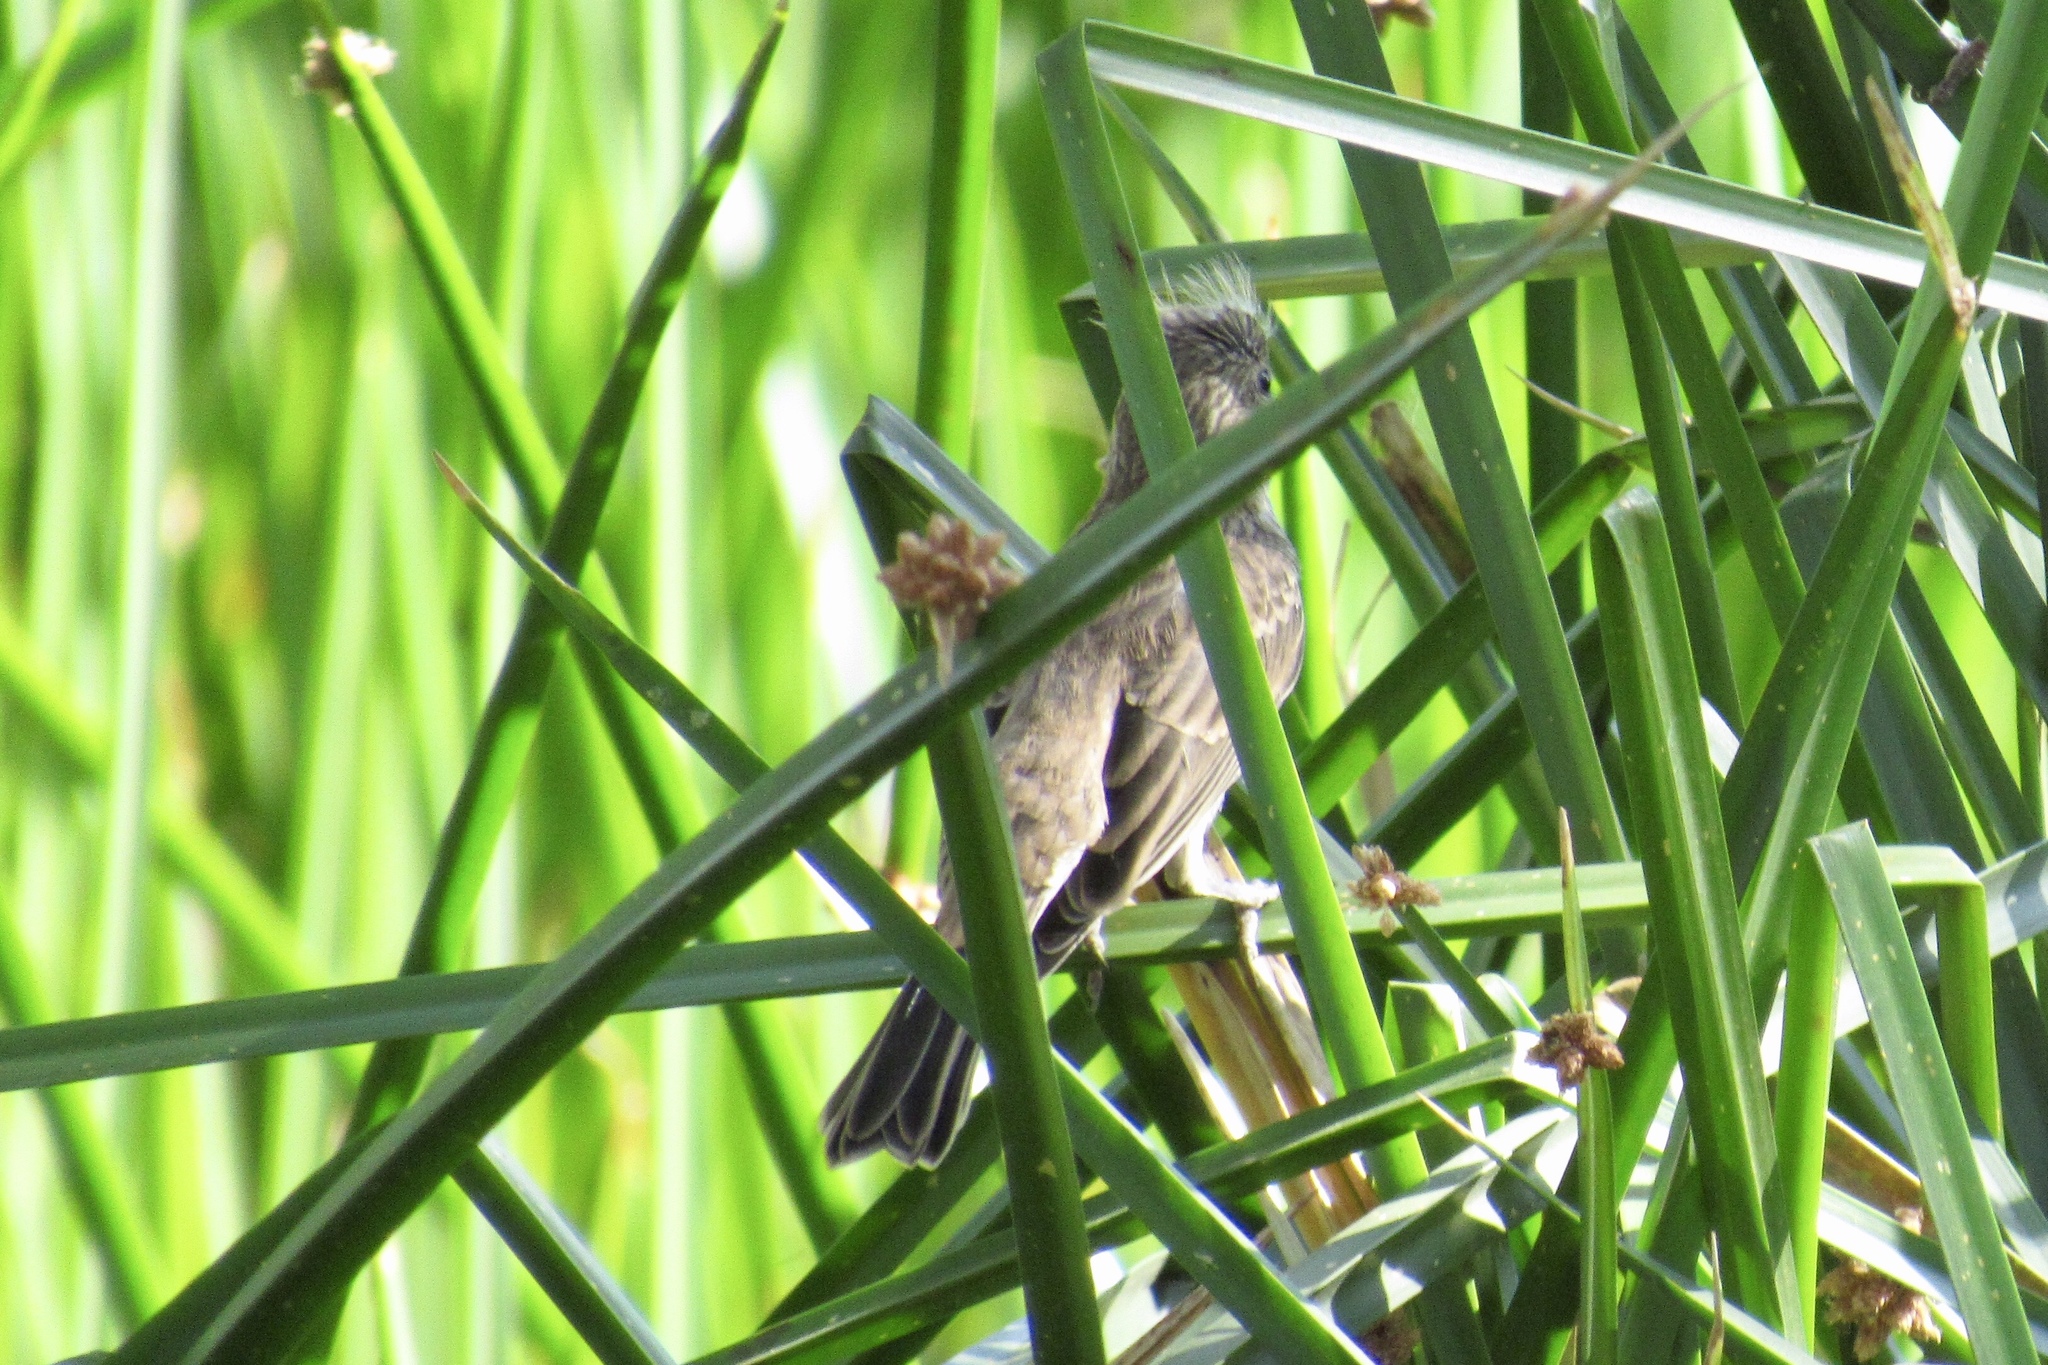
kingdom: Animalia
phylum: Chordata
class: Aves
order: Passeriformes
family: Fringillidae
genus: Haemorhous
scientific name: Haemorhous mexicanus
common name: House finch
